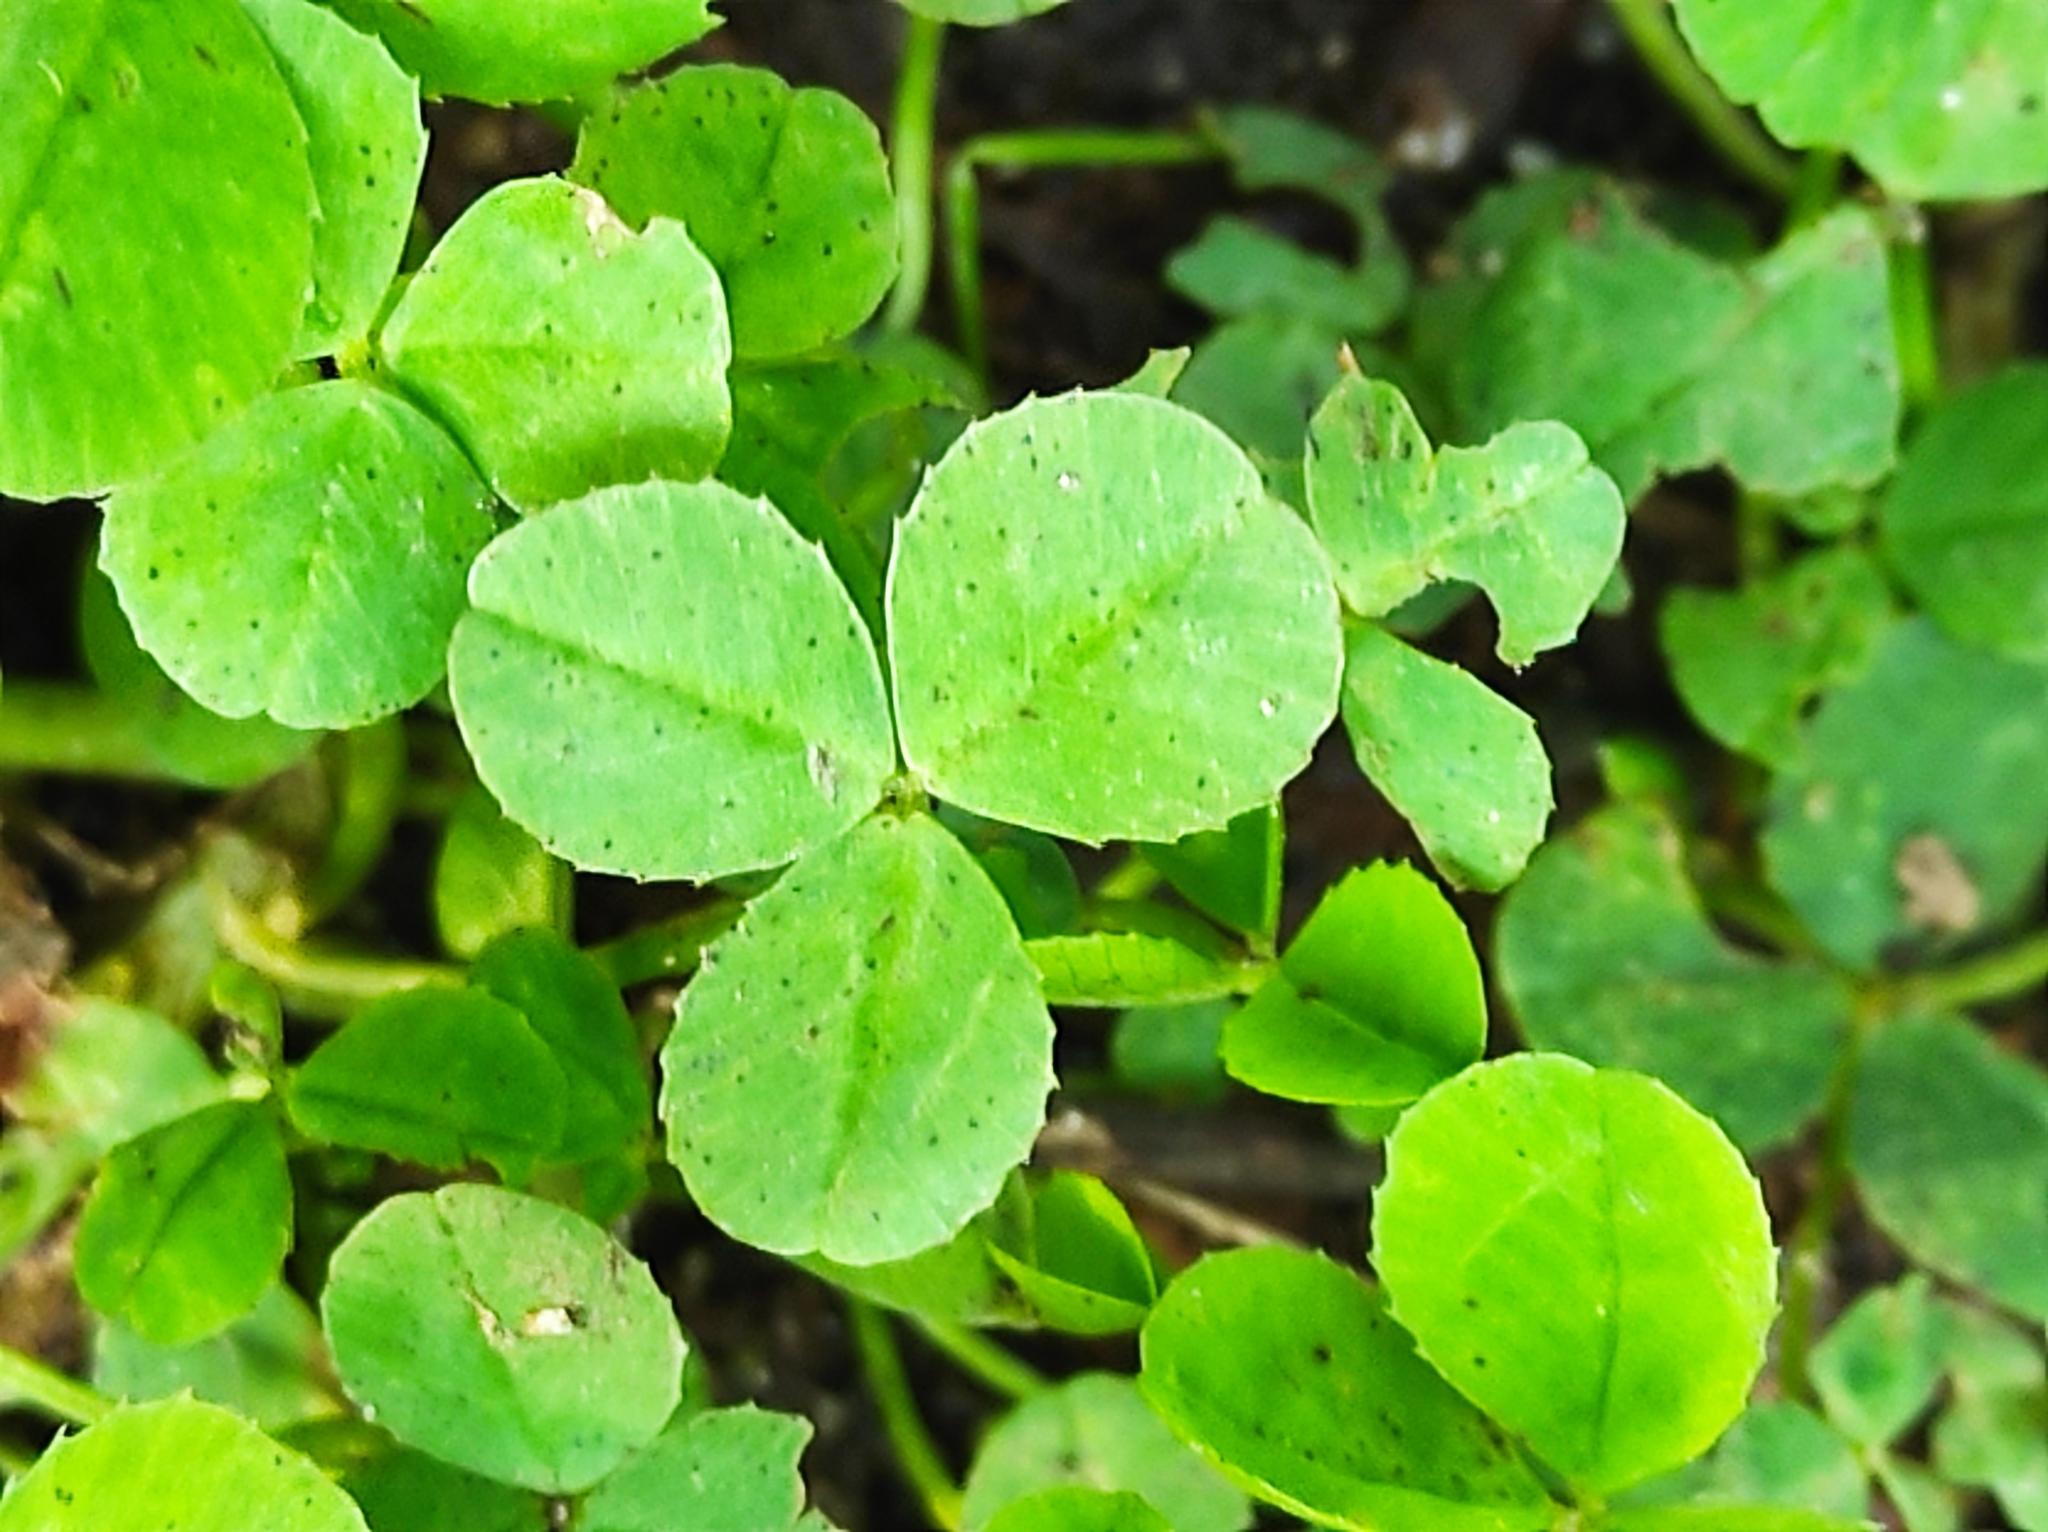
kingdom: Plantae
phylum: Tracheophyta
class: Magnoliopsida
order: Fabales
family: Fabaceae
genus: Trifolium
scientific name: Trifolium repens
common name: White clover
